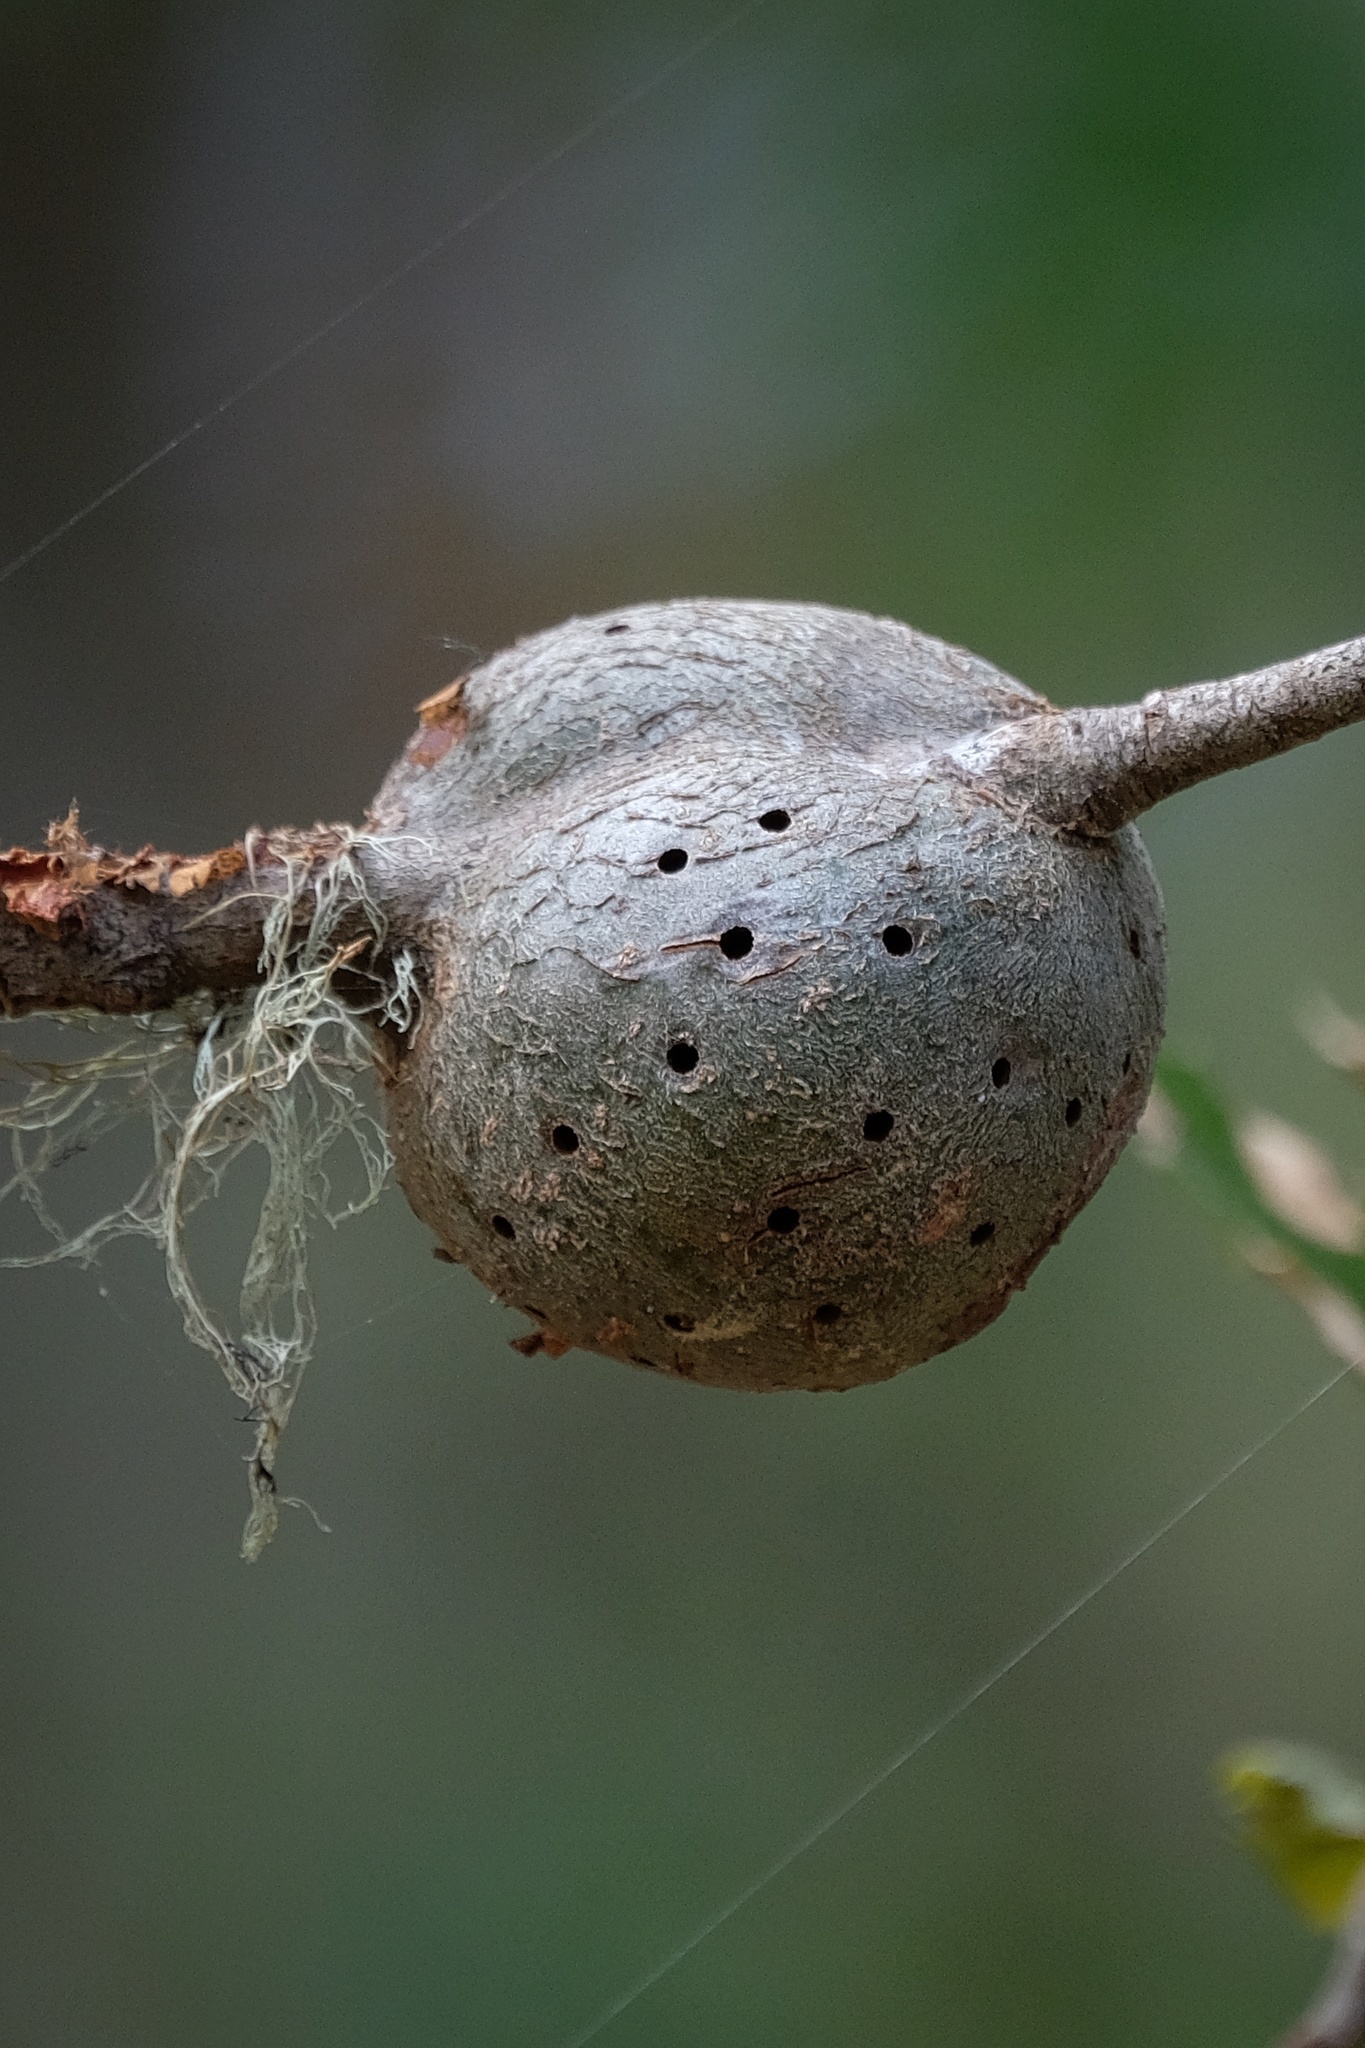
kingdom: Animalia
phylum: Arthropoda
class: Insecta
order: Hymenoptera
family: Cynipidae
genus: Callirhytis
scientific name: Callirhytis
